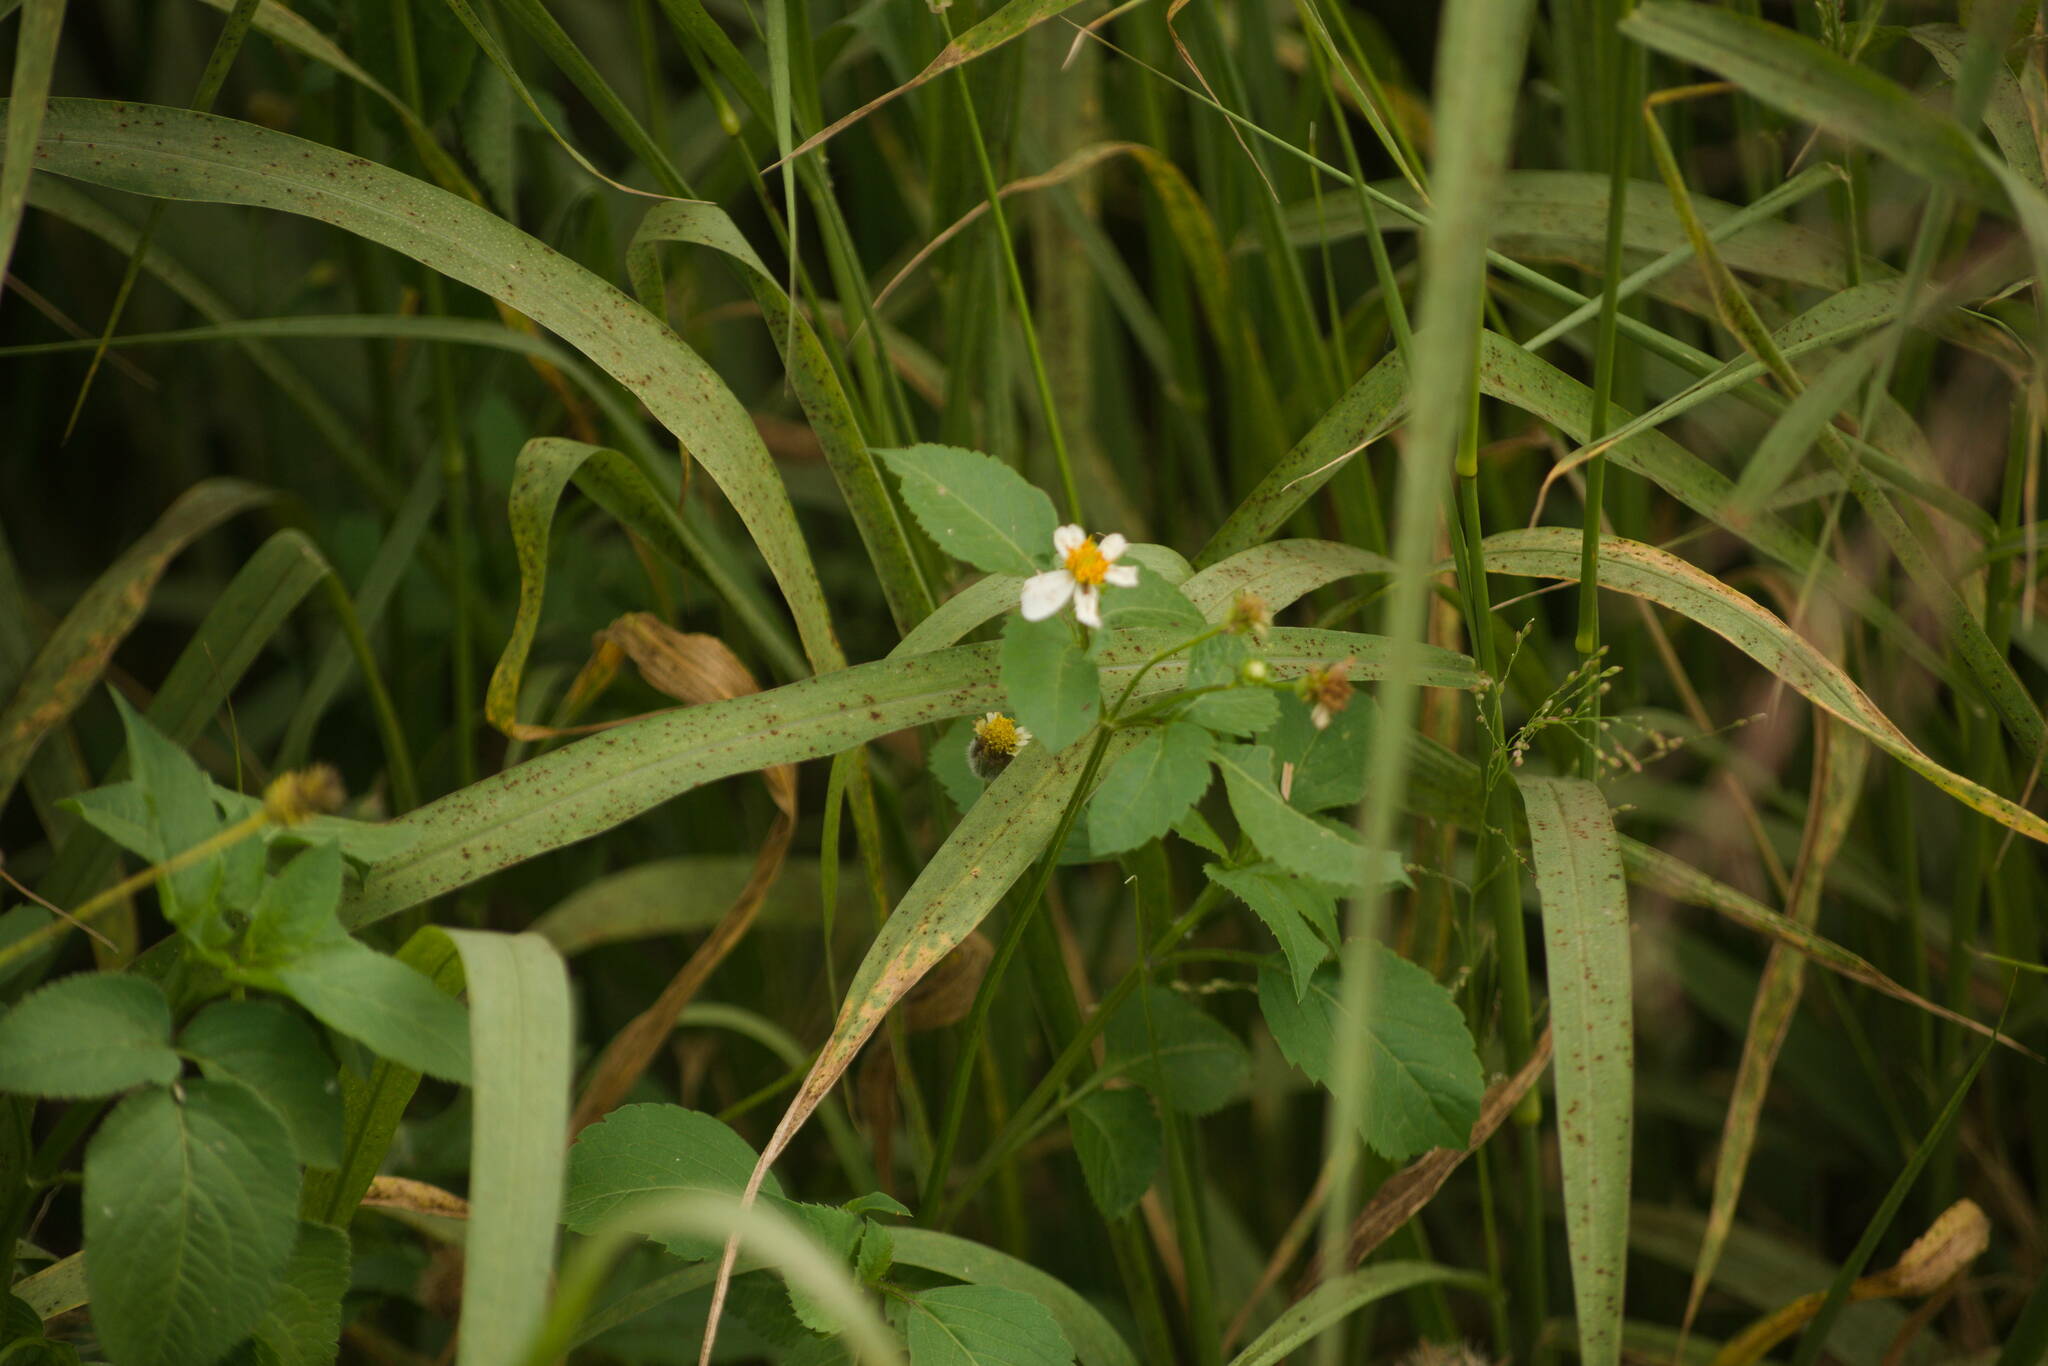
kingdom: Plantae
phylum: Tracheophyta
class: Magnoliopsida
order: Asterales
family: Asteraceae
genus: Bidens
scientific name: Bidens alba
